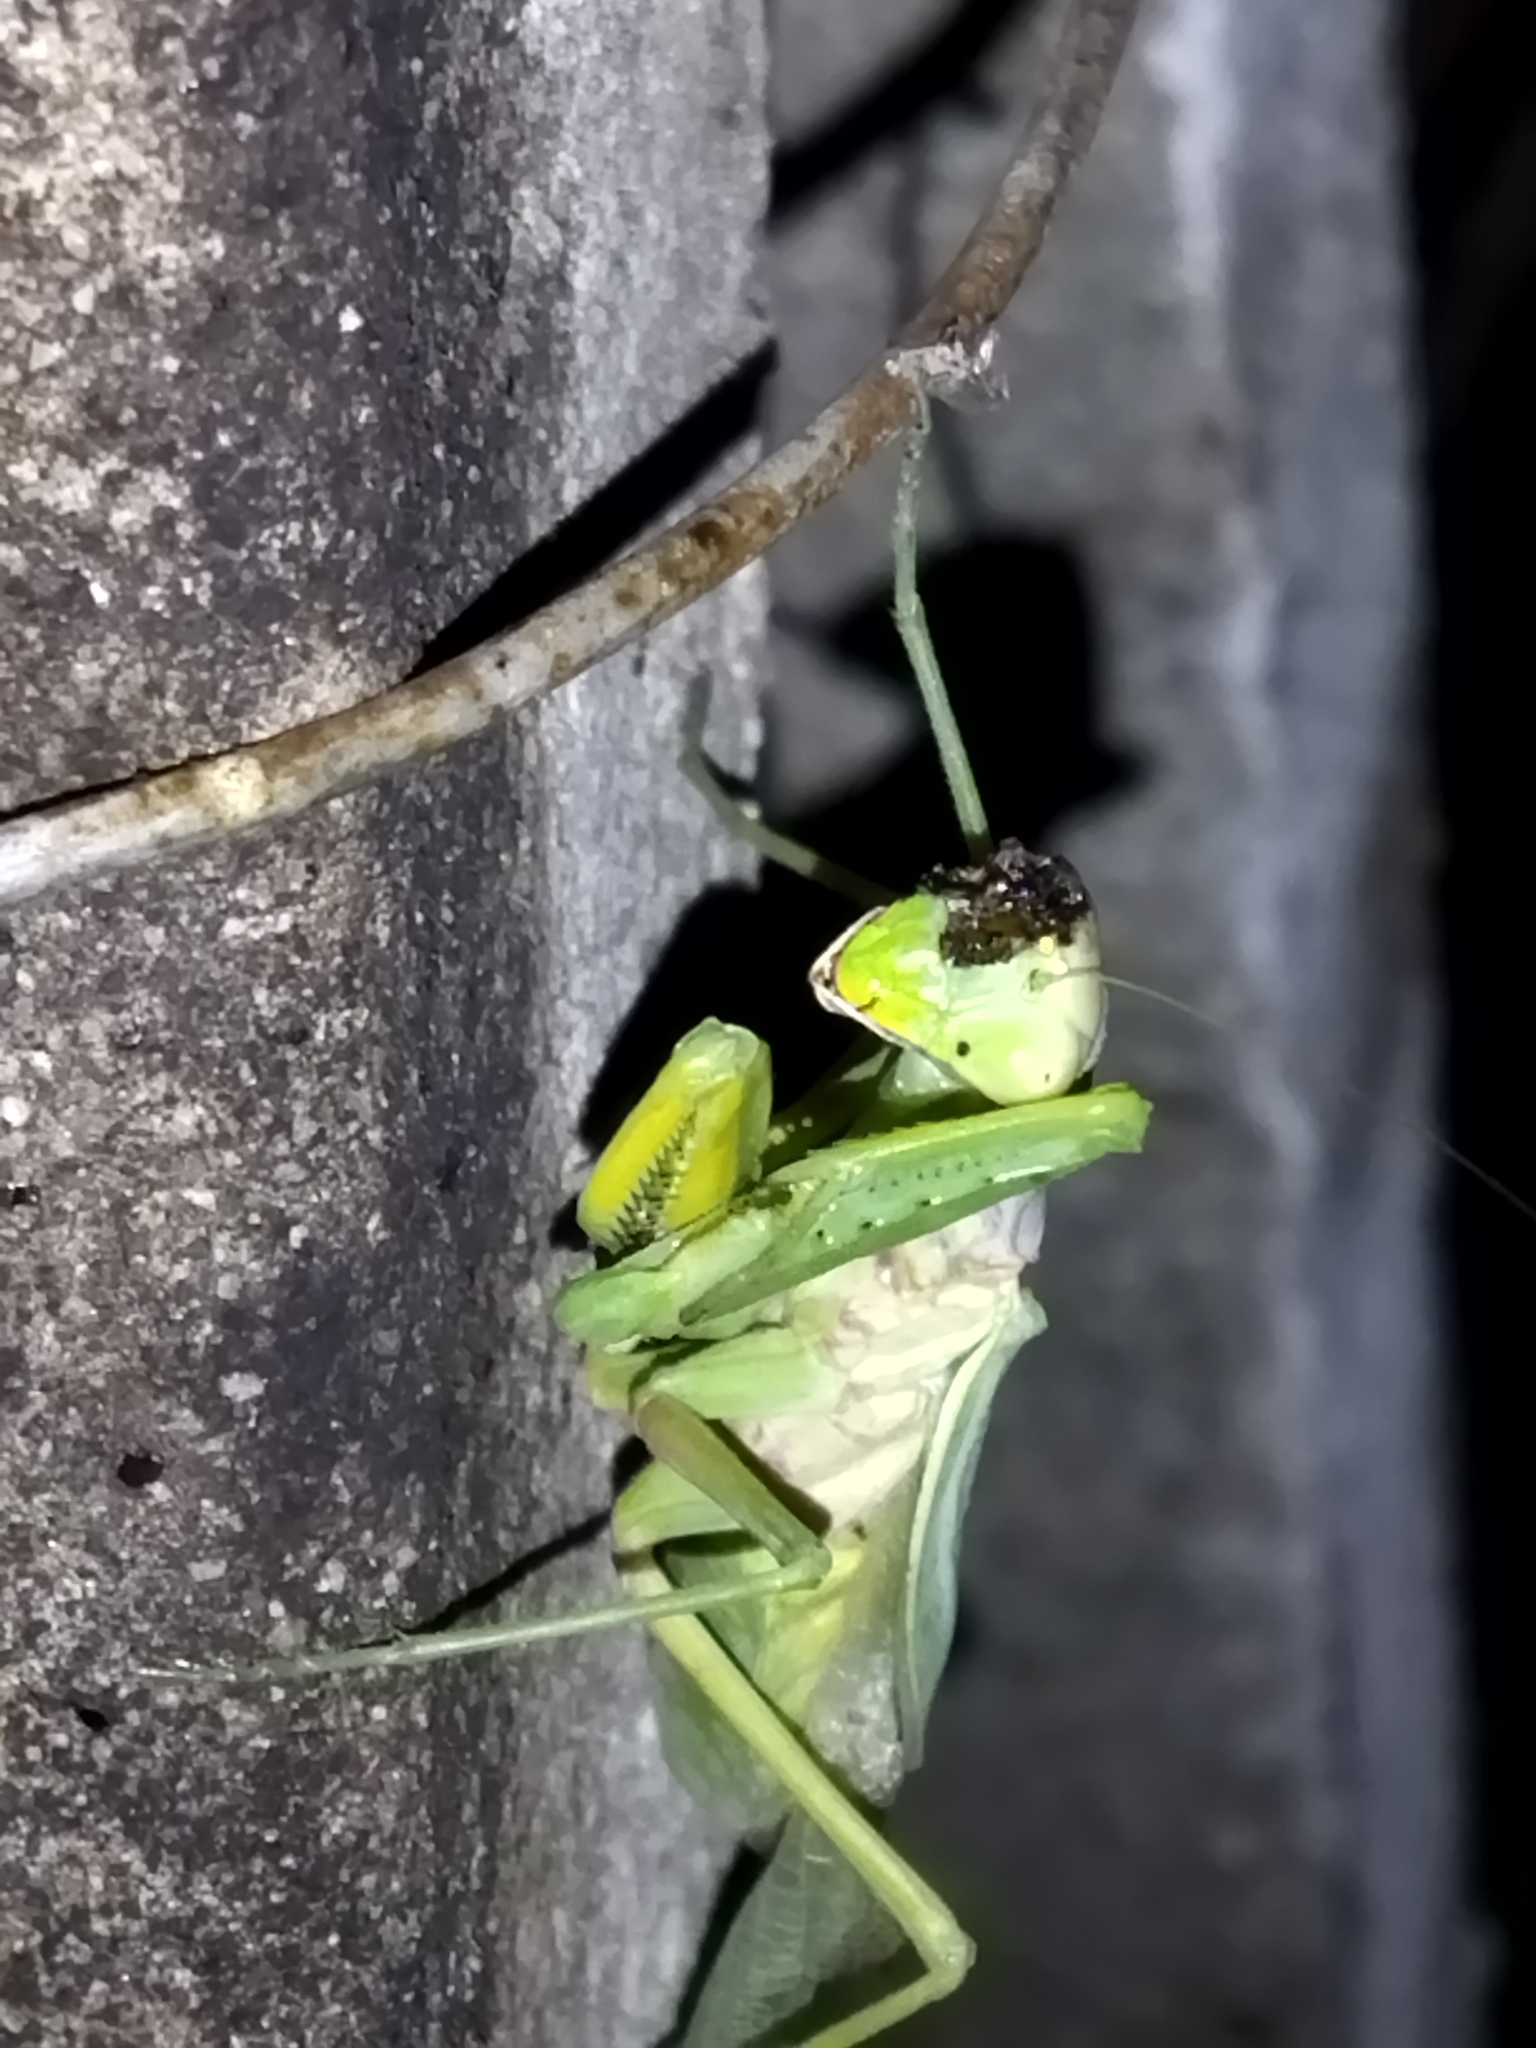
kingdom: Animalia
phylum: Arthropoda
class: Insecta
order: Mantodea
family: Mantidae
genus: Hierodula
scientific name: Hierodula transcaucasica
